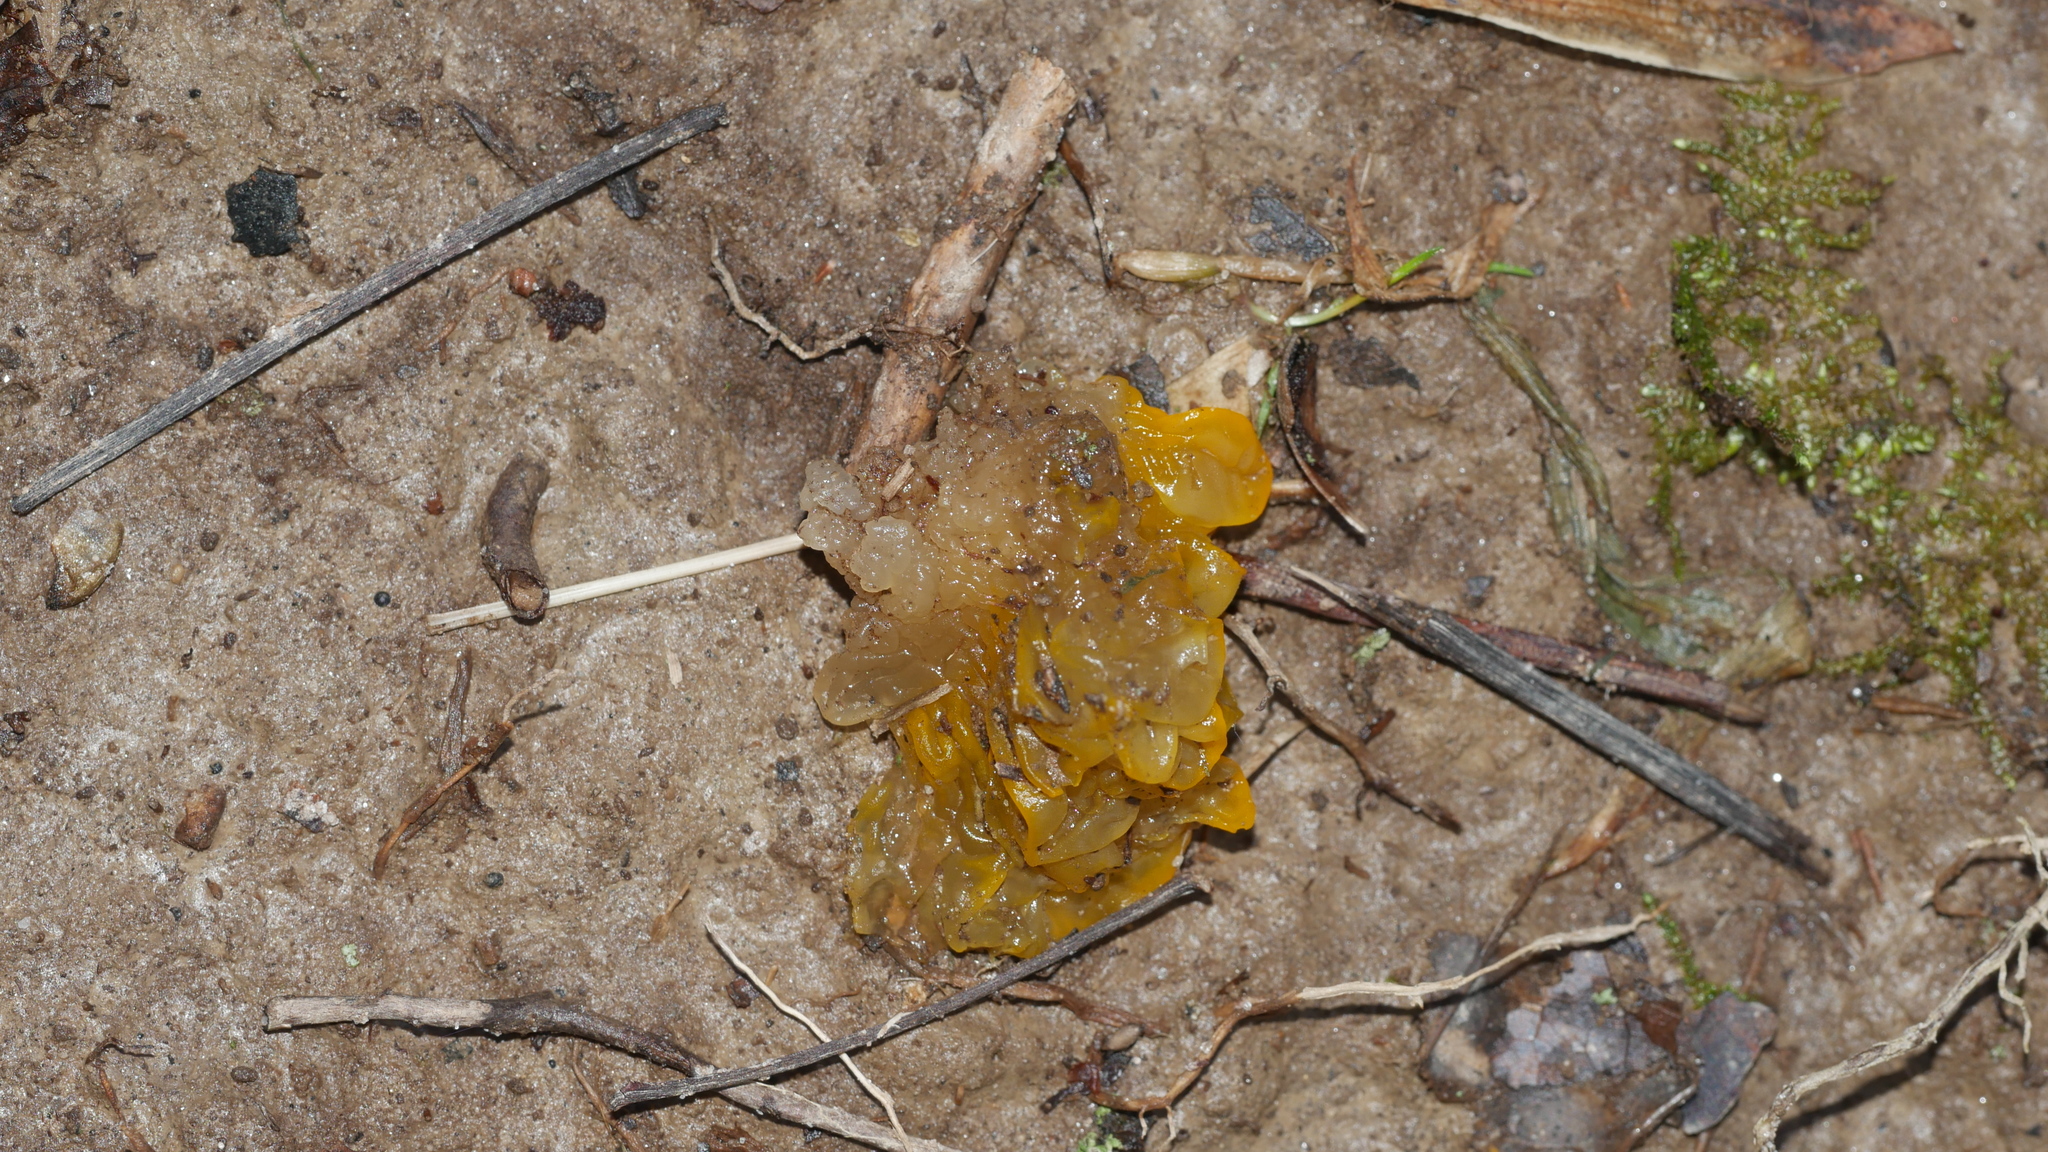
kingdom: Fungi
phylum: Basidiomycota
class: Tremellomycetes
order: Tremellales
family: Tremellaceae
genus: Tremella
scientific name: Tremella mesenterica
